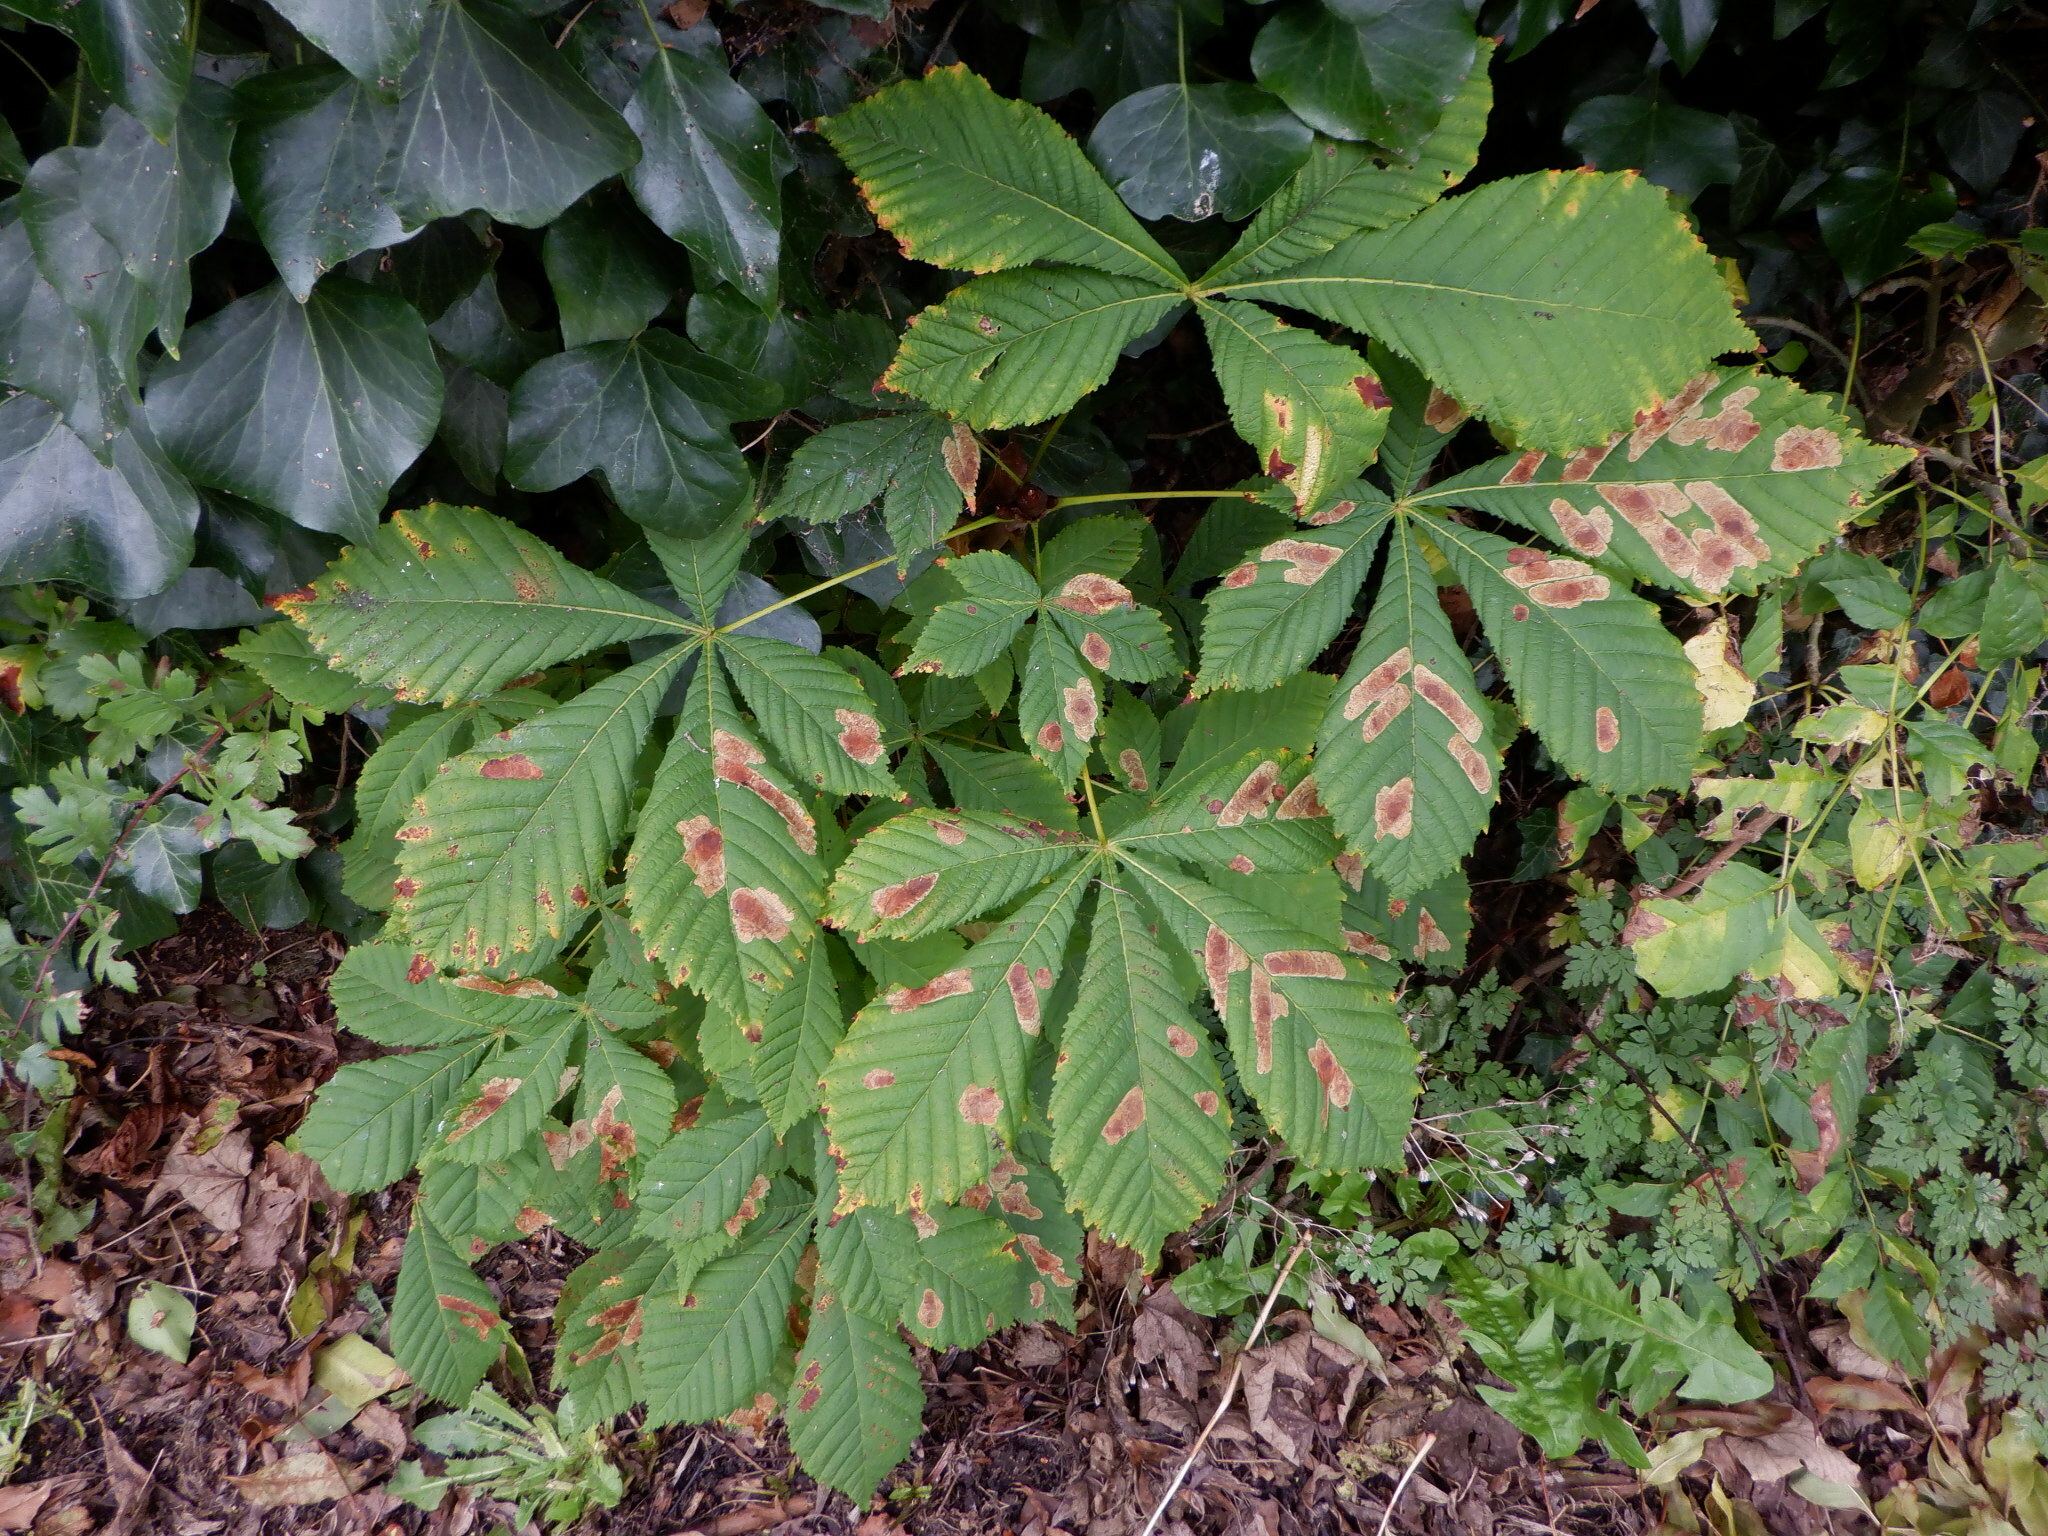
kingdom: Plantae
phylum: Tracheophyta
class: Magnoliopsida
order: Sapindales
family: Sapindaceae
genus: Aesculus
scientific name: Aesculus hippocastanum
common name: Horse-chestnut
